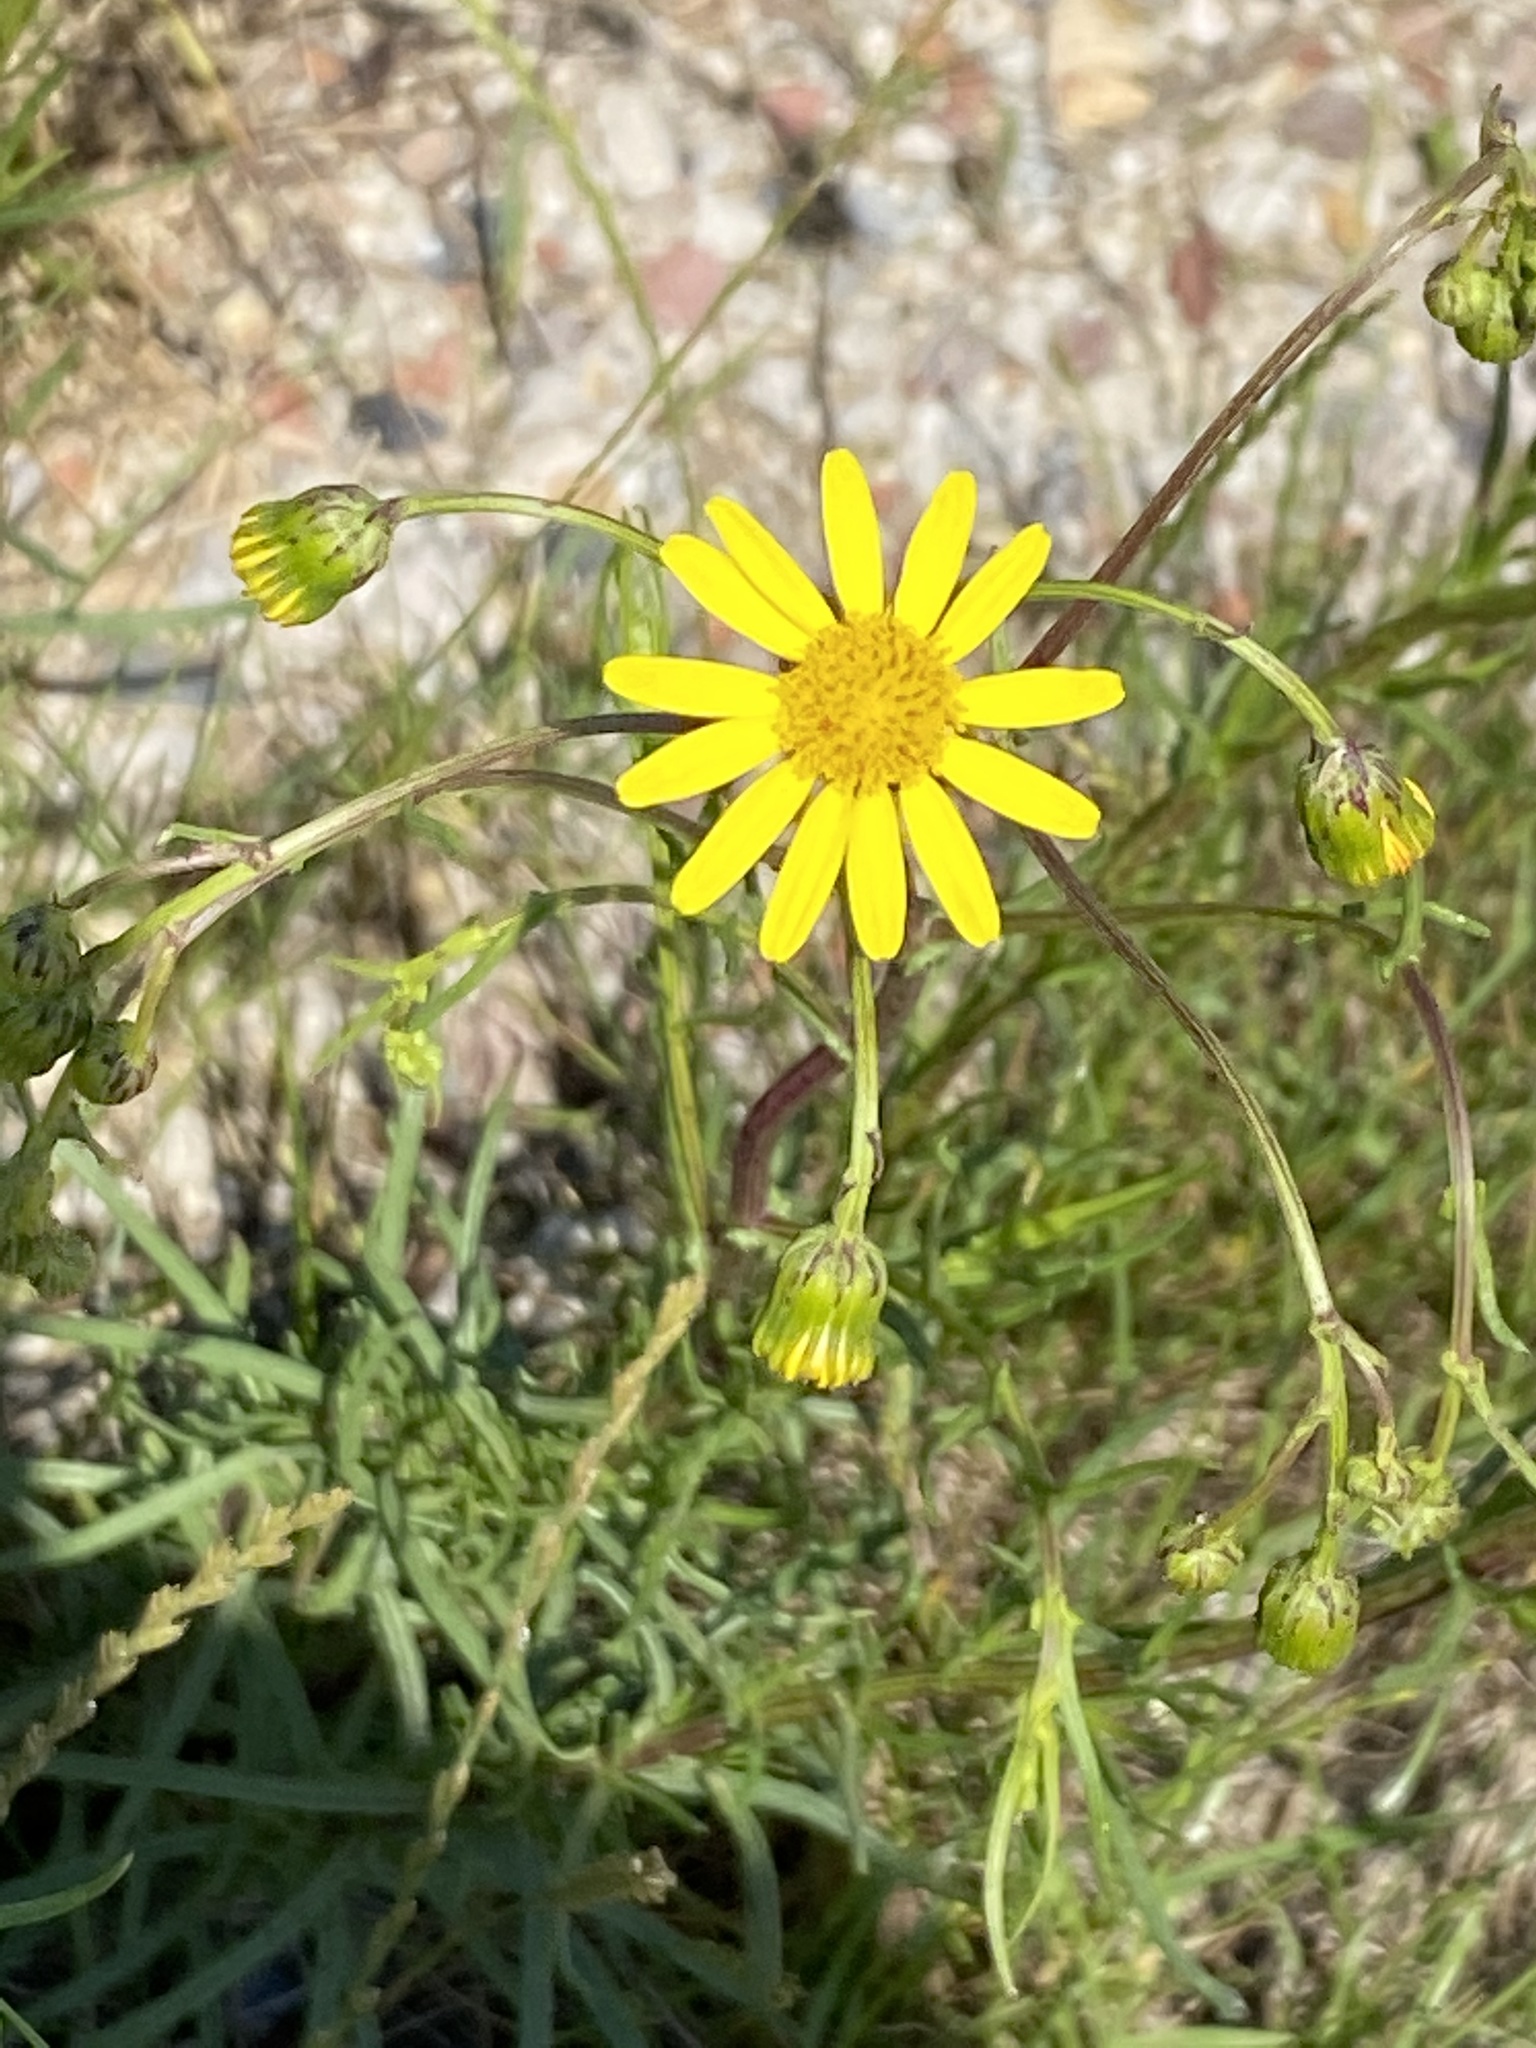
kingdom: Plantae
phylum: Tracheophyta
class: Magnoliopsida
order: Asterales
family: Asteraceae
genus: Senecio
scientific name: Senecio inaequidens
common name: Narrow-leaved ragwort
